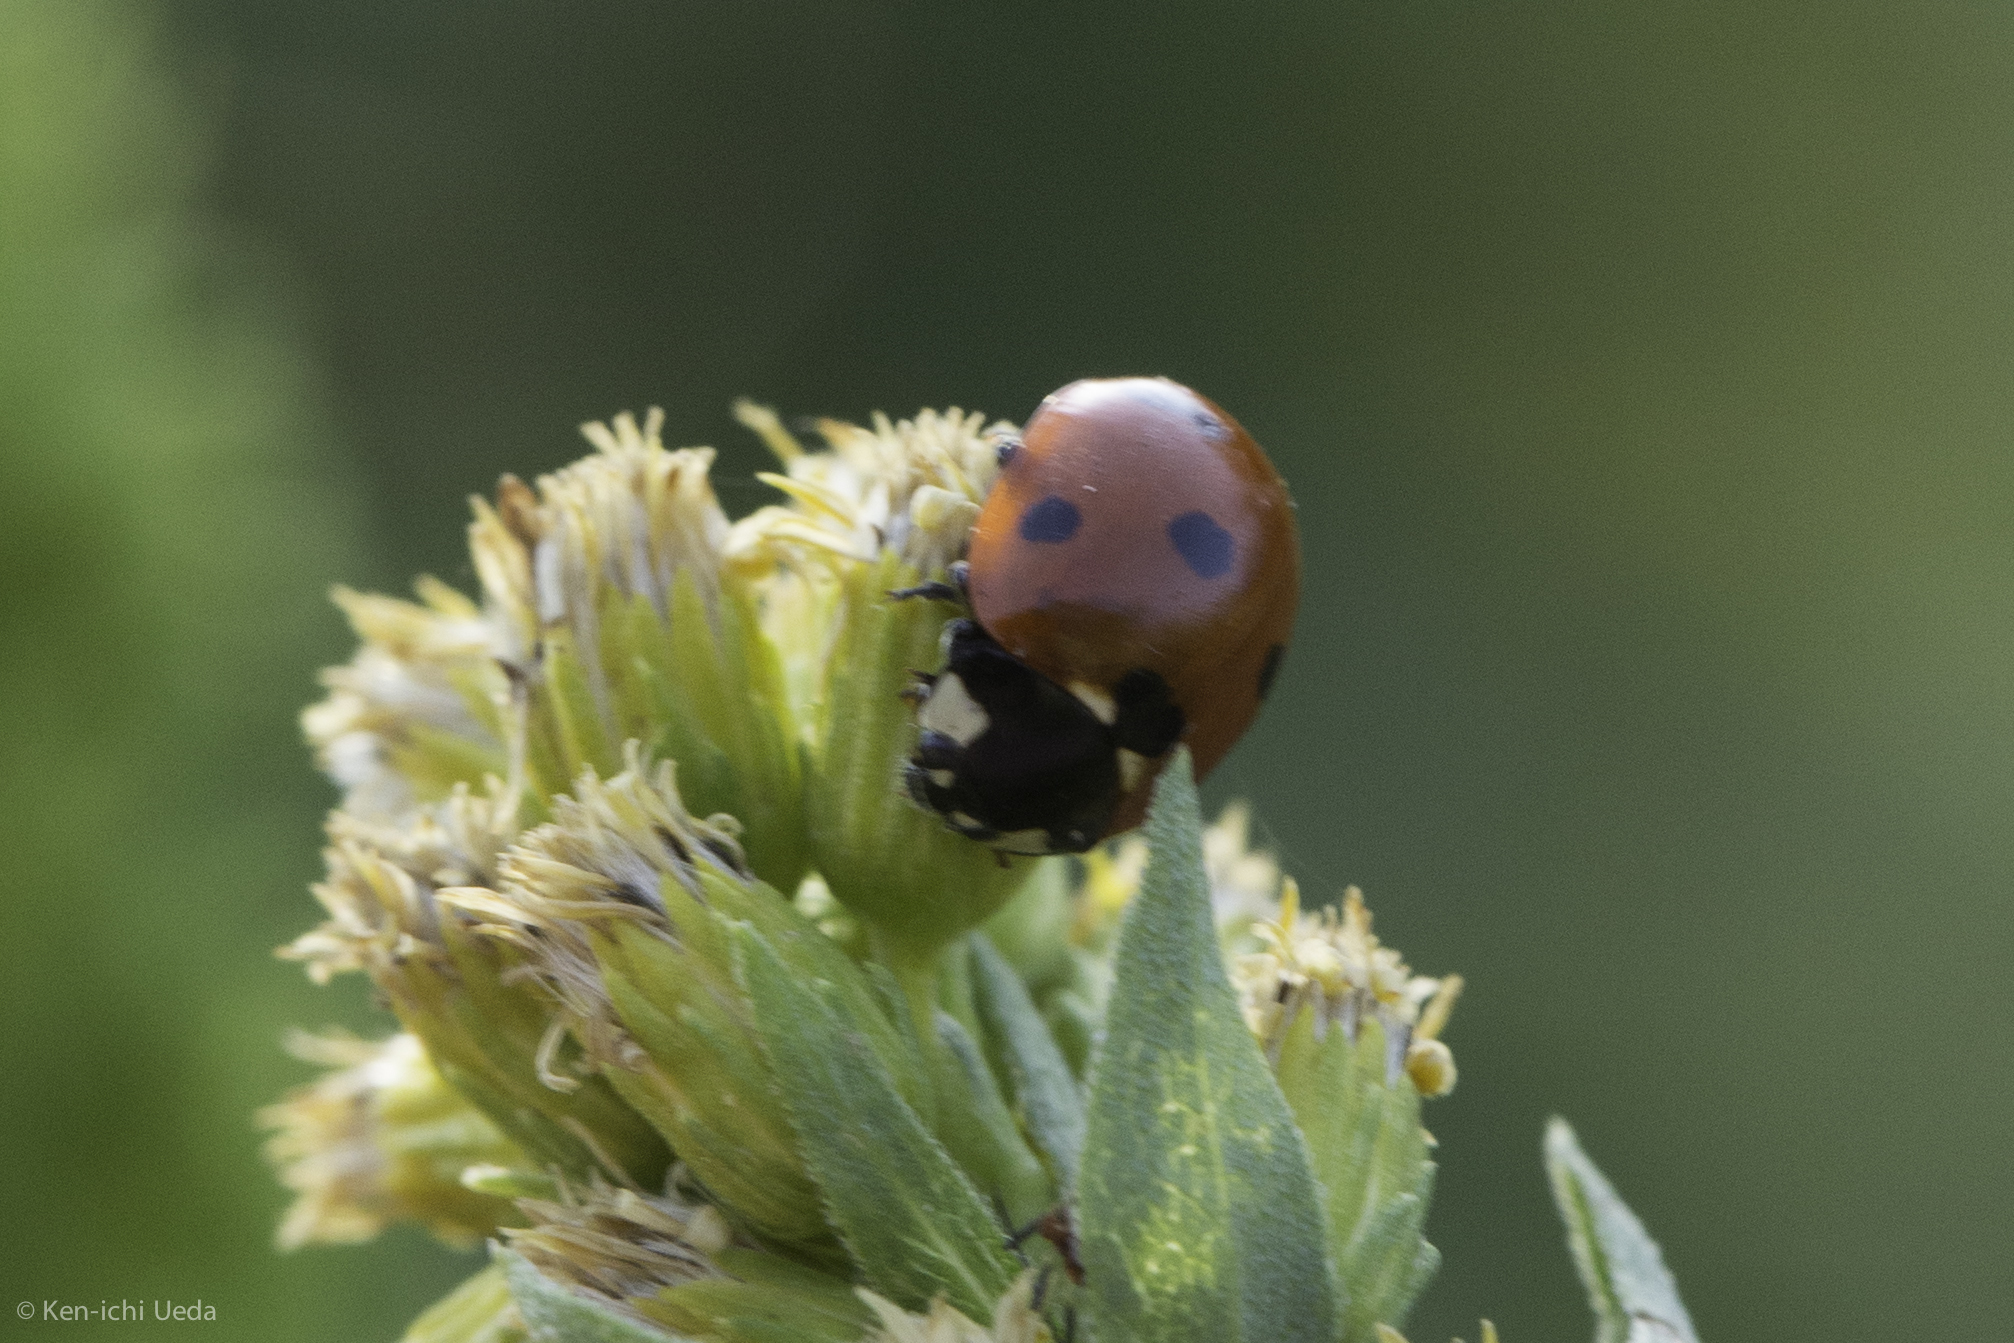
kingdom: Animalia
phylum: Arthropoda
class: Insecta
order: Coleoptera
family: Coccinellidae
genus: Coccinella
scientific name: Coccinella septempunctata
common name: Sevenspotted lady beetle
